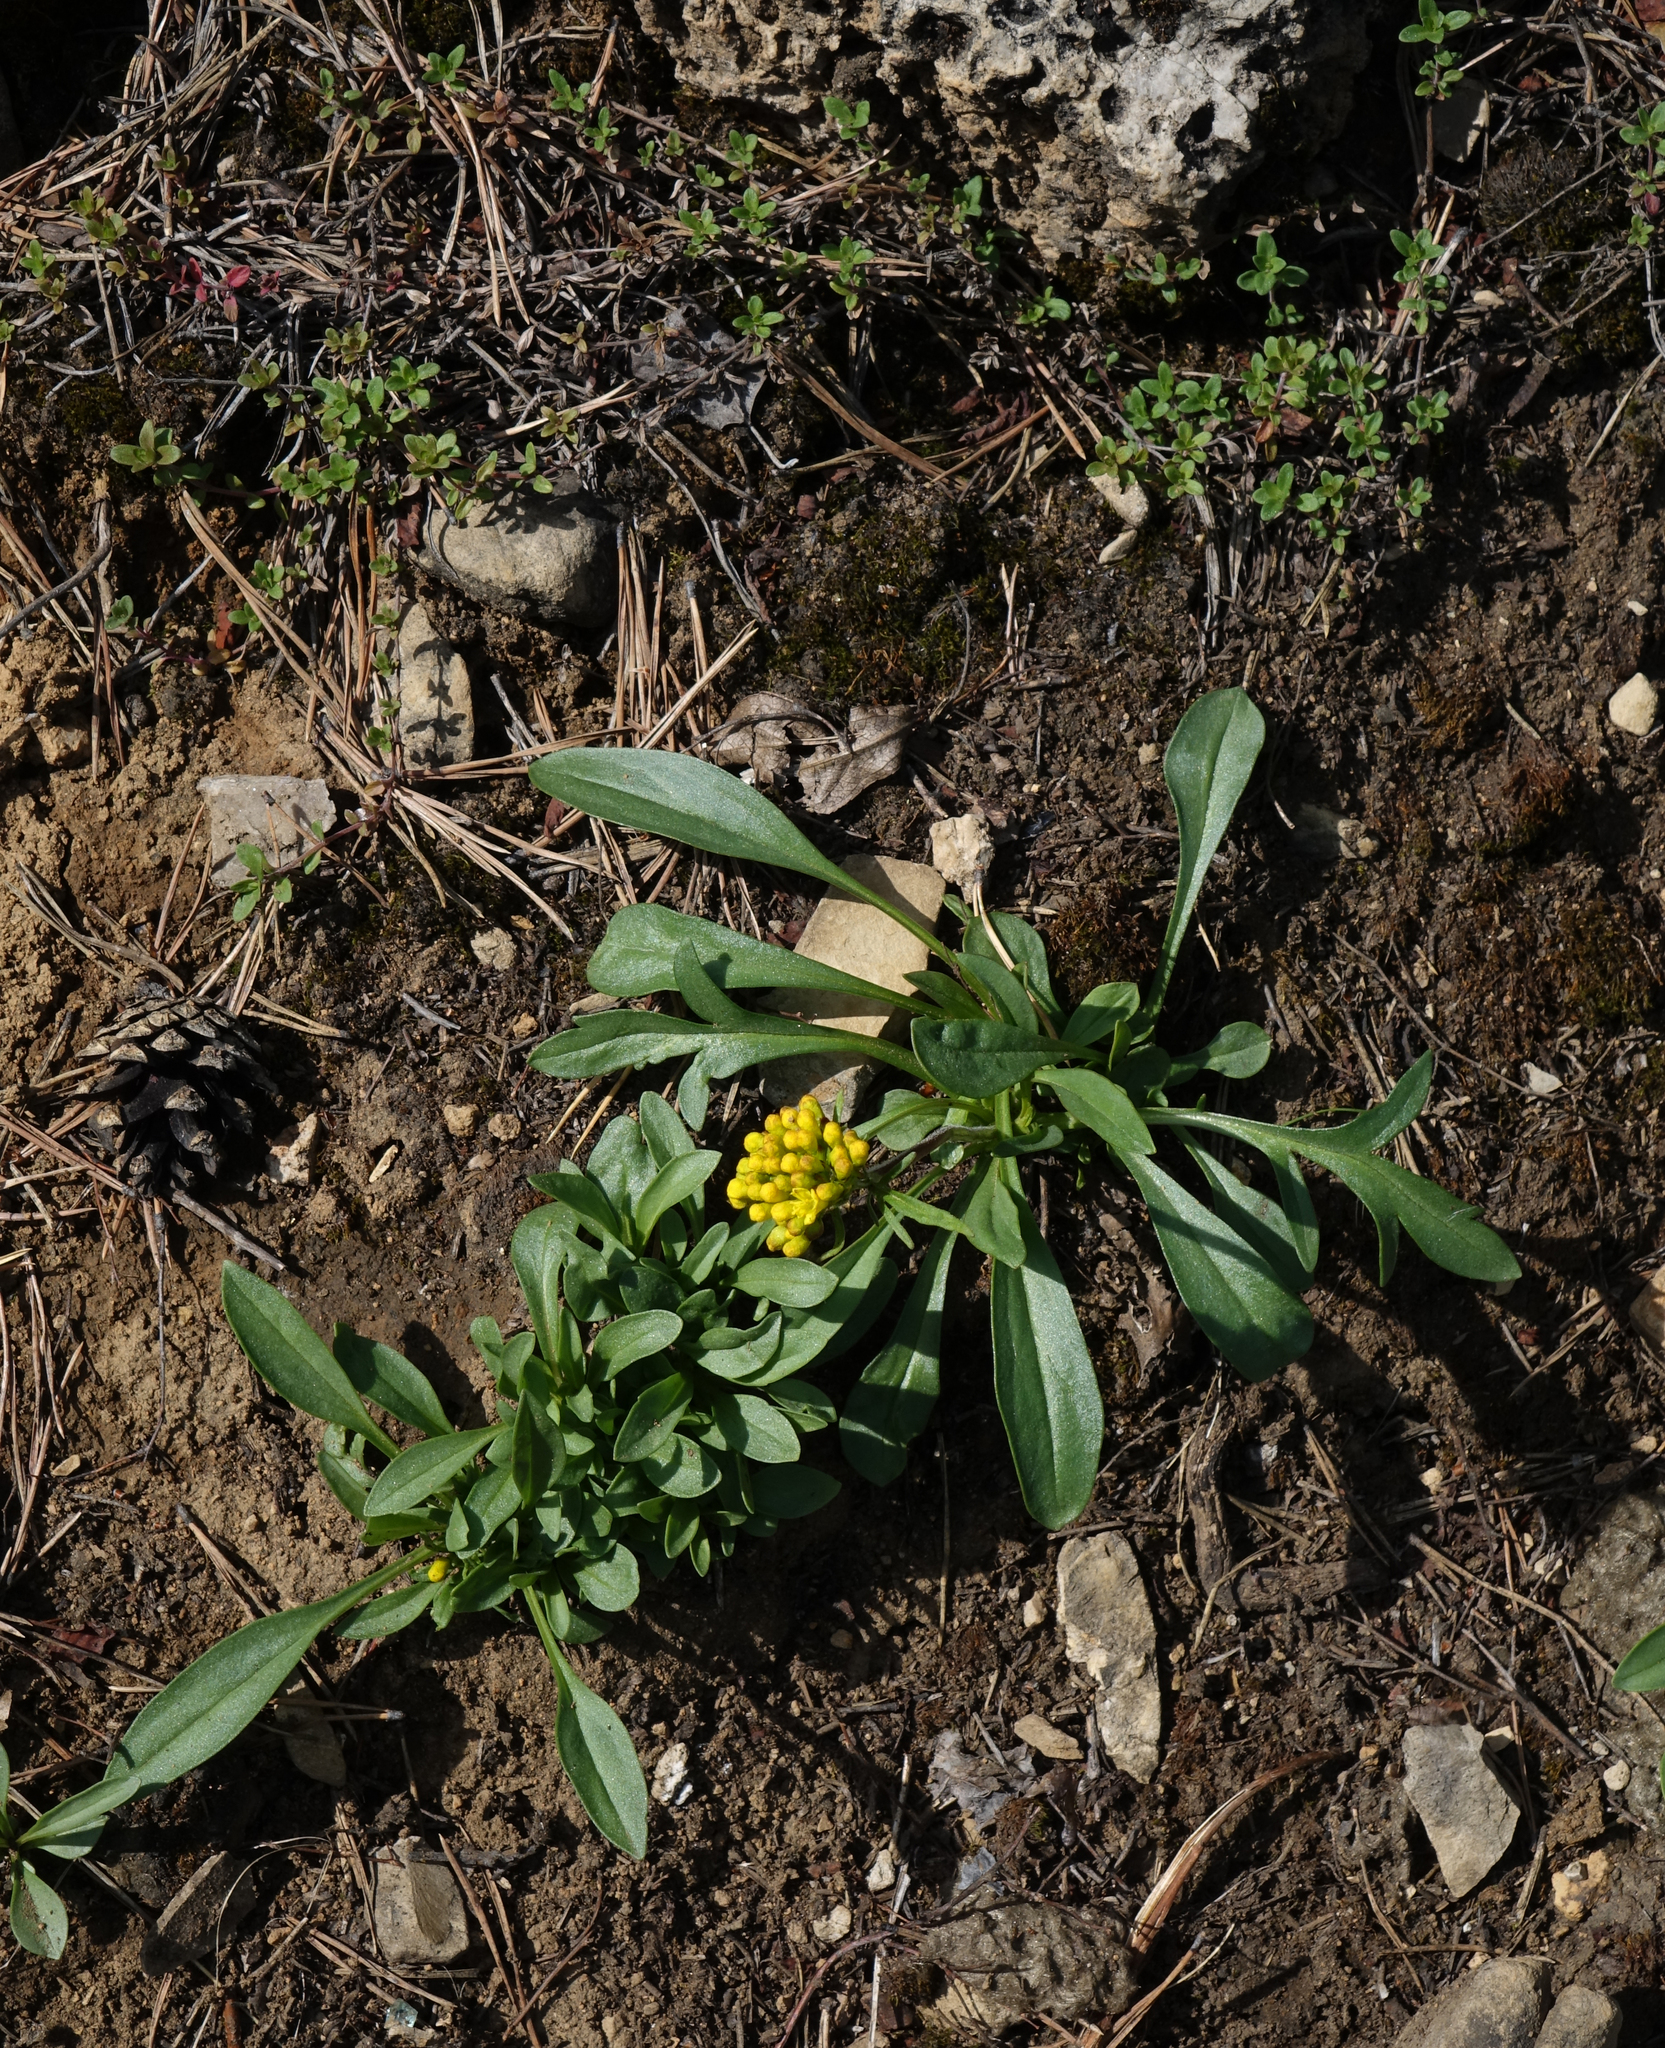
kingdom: Plantae
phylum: Tracheophyta
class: Magnoliopsida
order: Dipsacales
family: Caprifoliaceae
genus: Patrinia
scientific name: Patrinia sibirica
